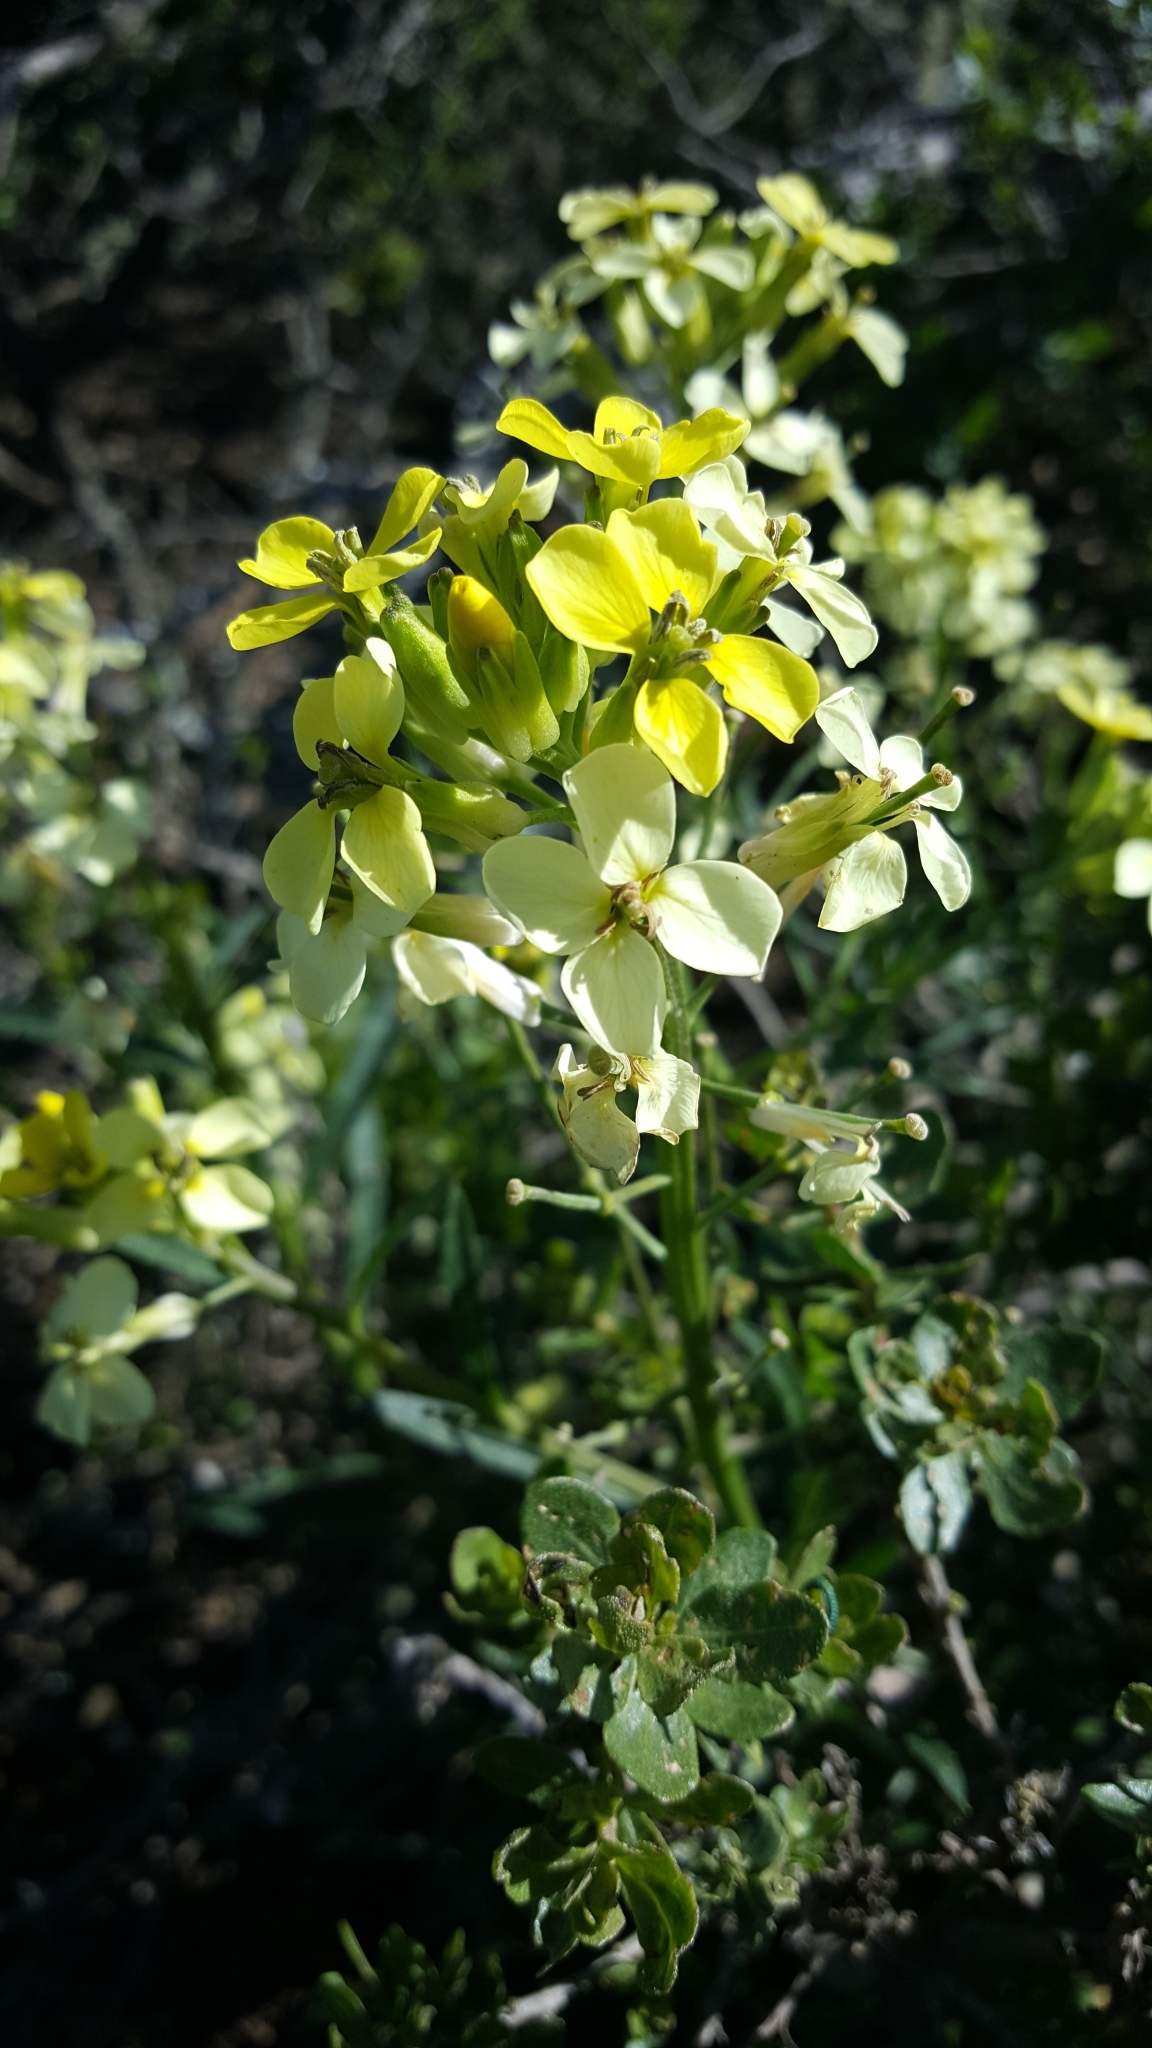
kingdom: Plantae
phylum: Tracheophyta
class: Magnoliopsida
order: Brassicales
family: Brassicaceae
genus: Erysimum
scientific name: Erysimum franciscanum
